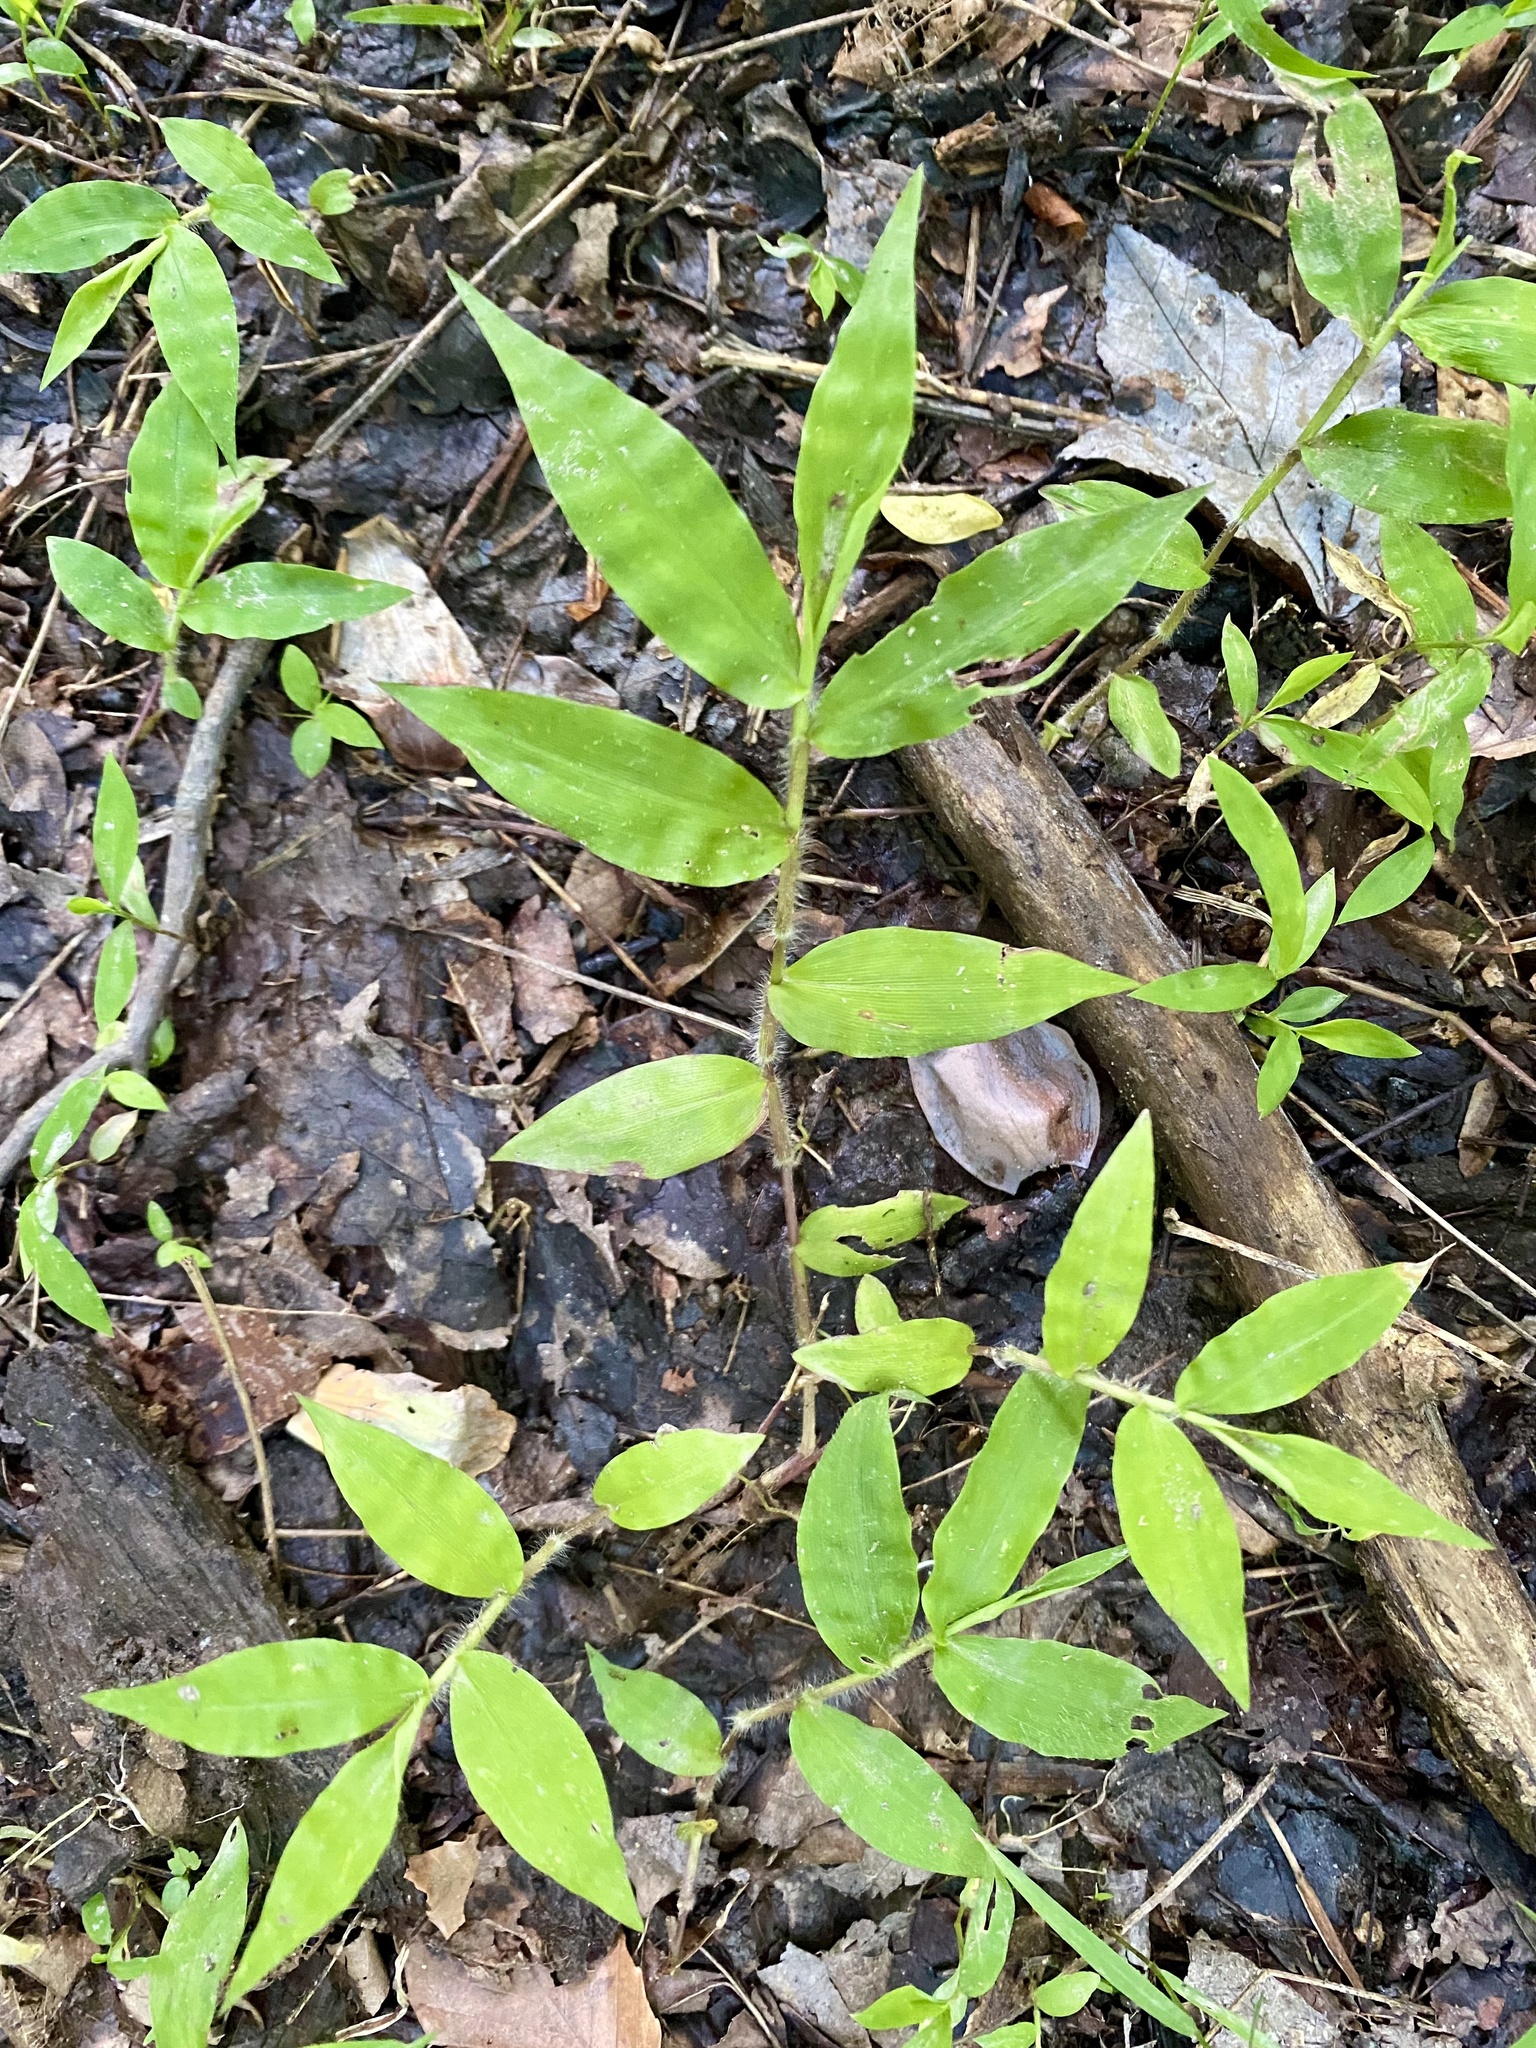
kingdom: Plantae
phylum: Tracheophyta
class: Liliopsida
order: Poales
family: Poaceae
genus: Oplismenus
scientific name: Oplismenus undulatifolius
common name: Wavyleaf basketgrass
